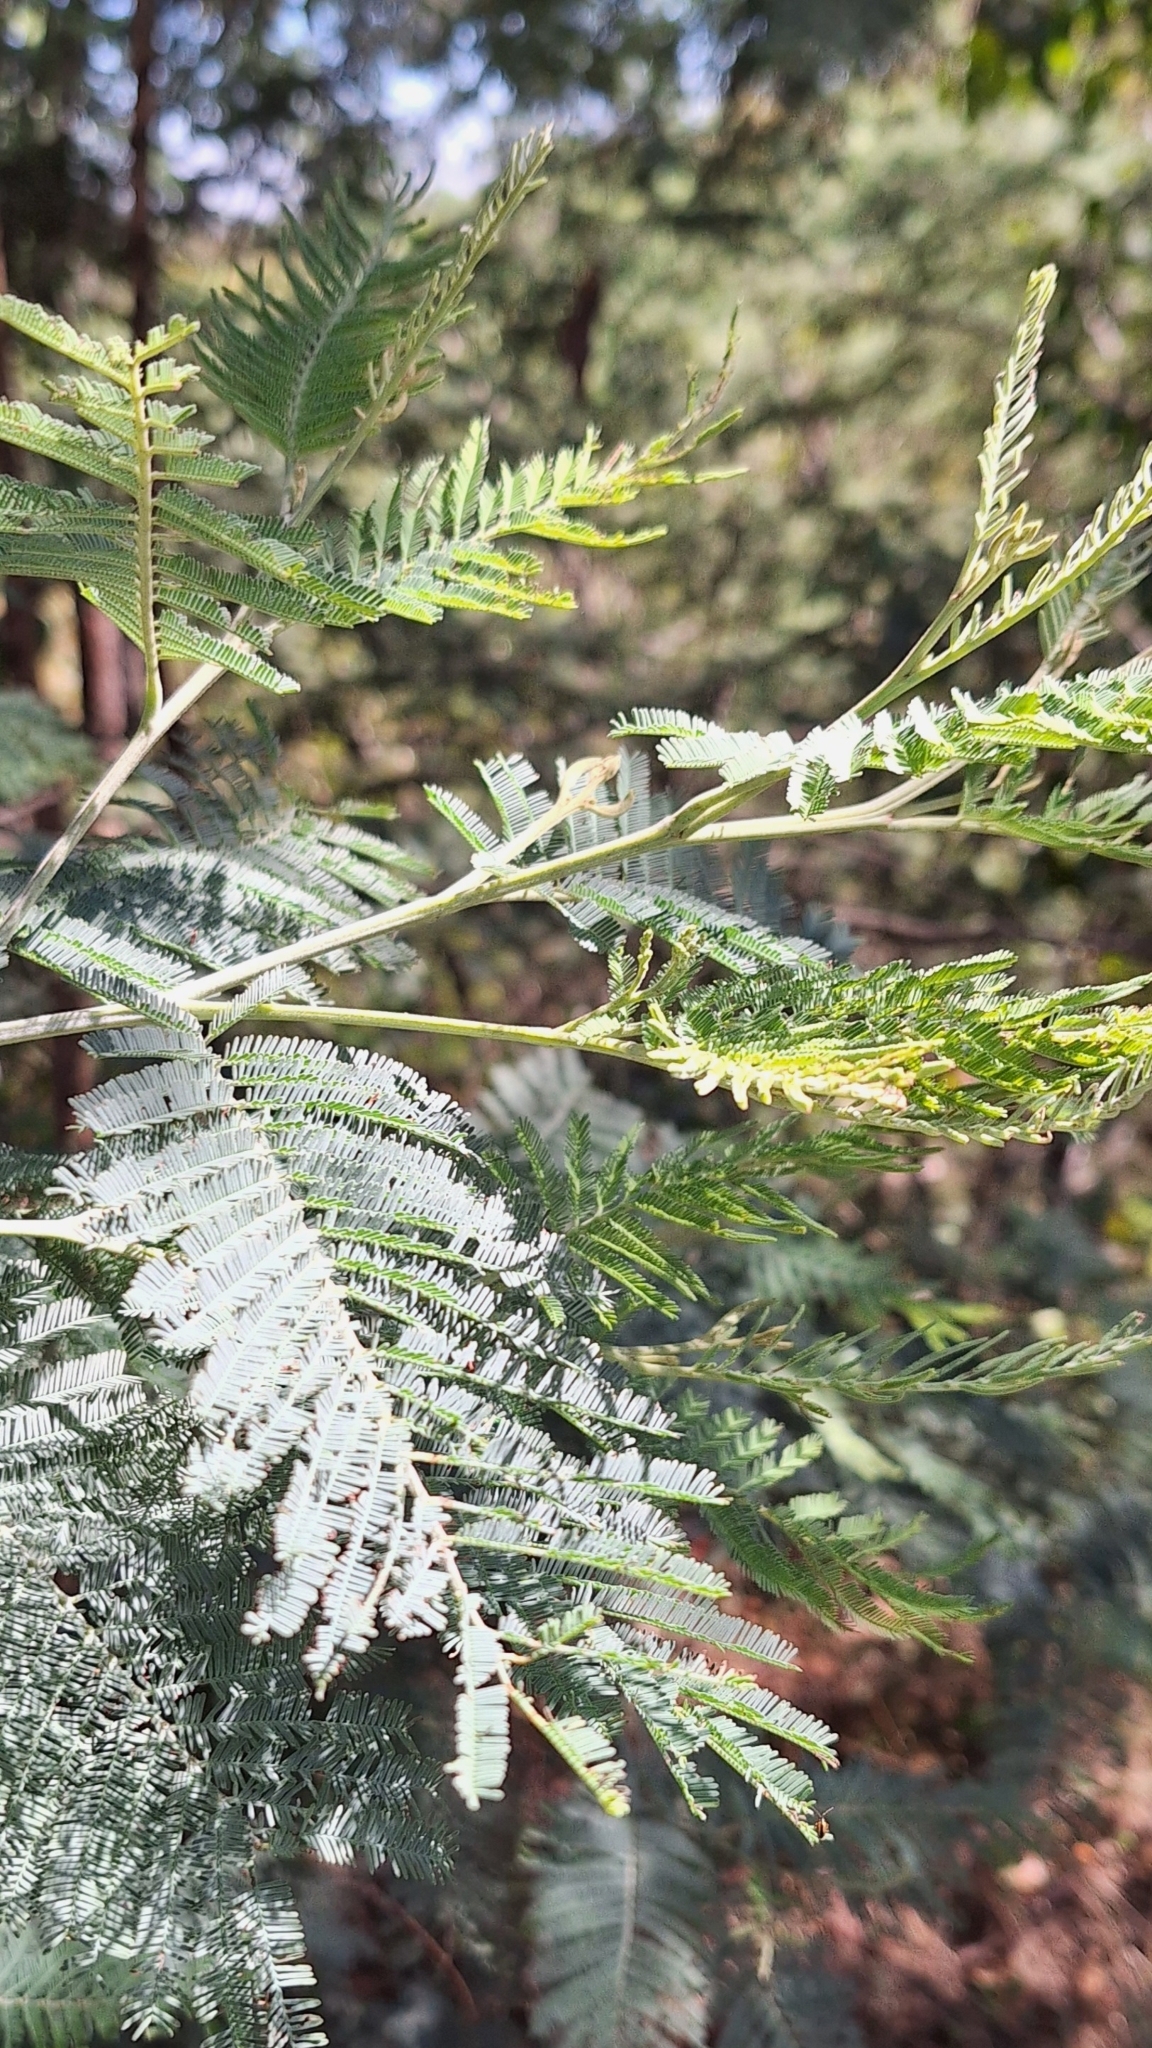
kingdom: Plantae
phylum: Tracheophyta
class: Magnoliopsida
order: Fabales
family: Fabaceae
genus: Acacia
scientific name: Acacia dealbata
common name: Silver wattle
